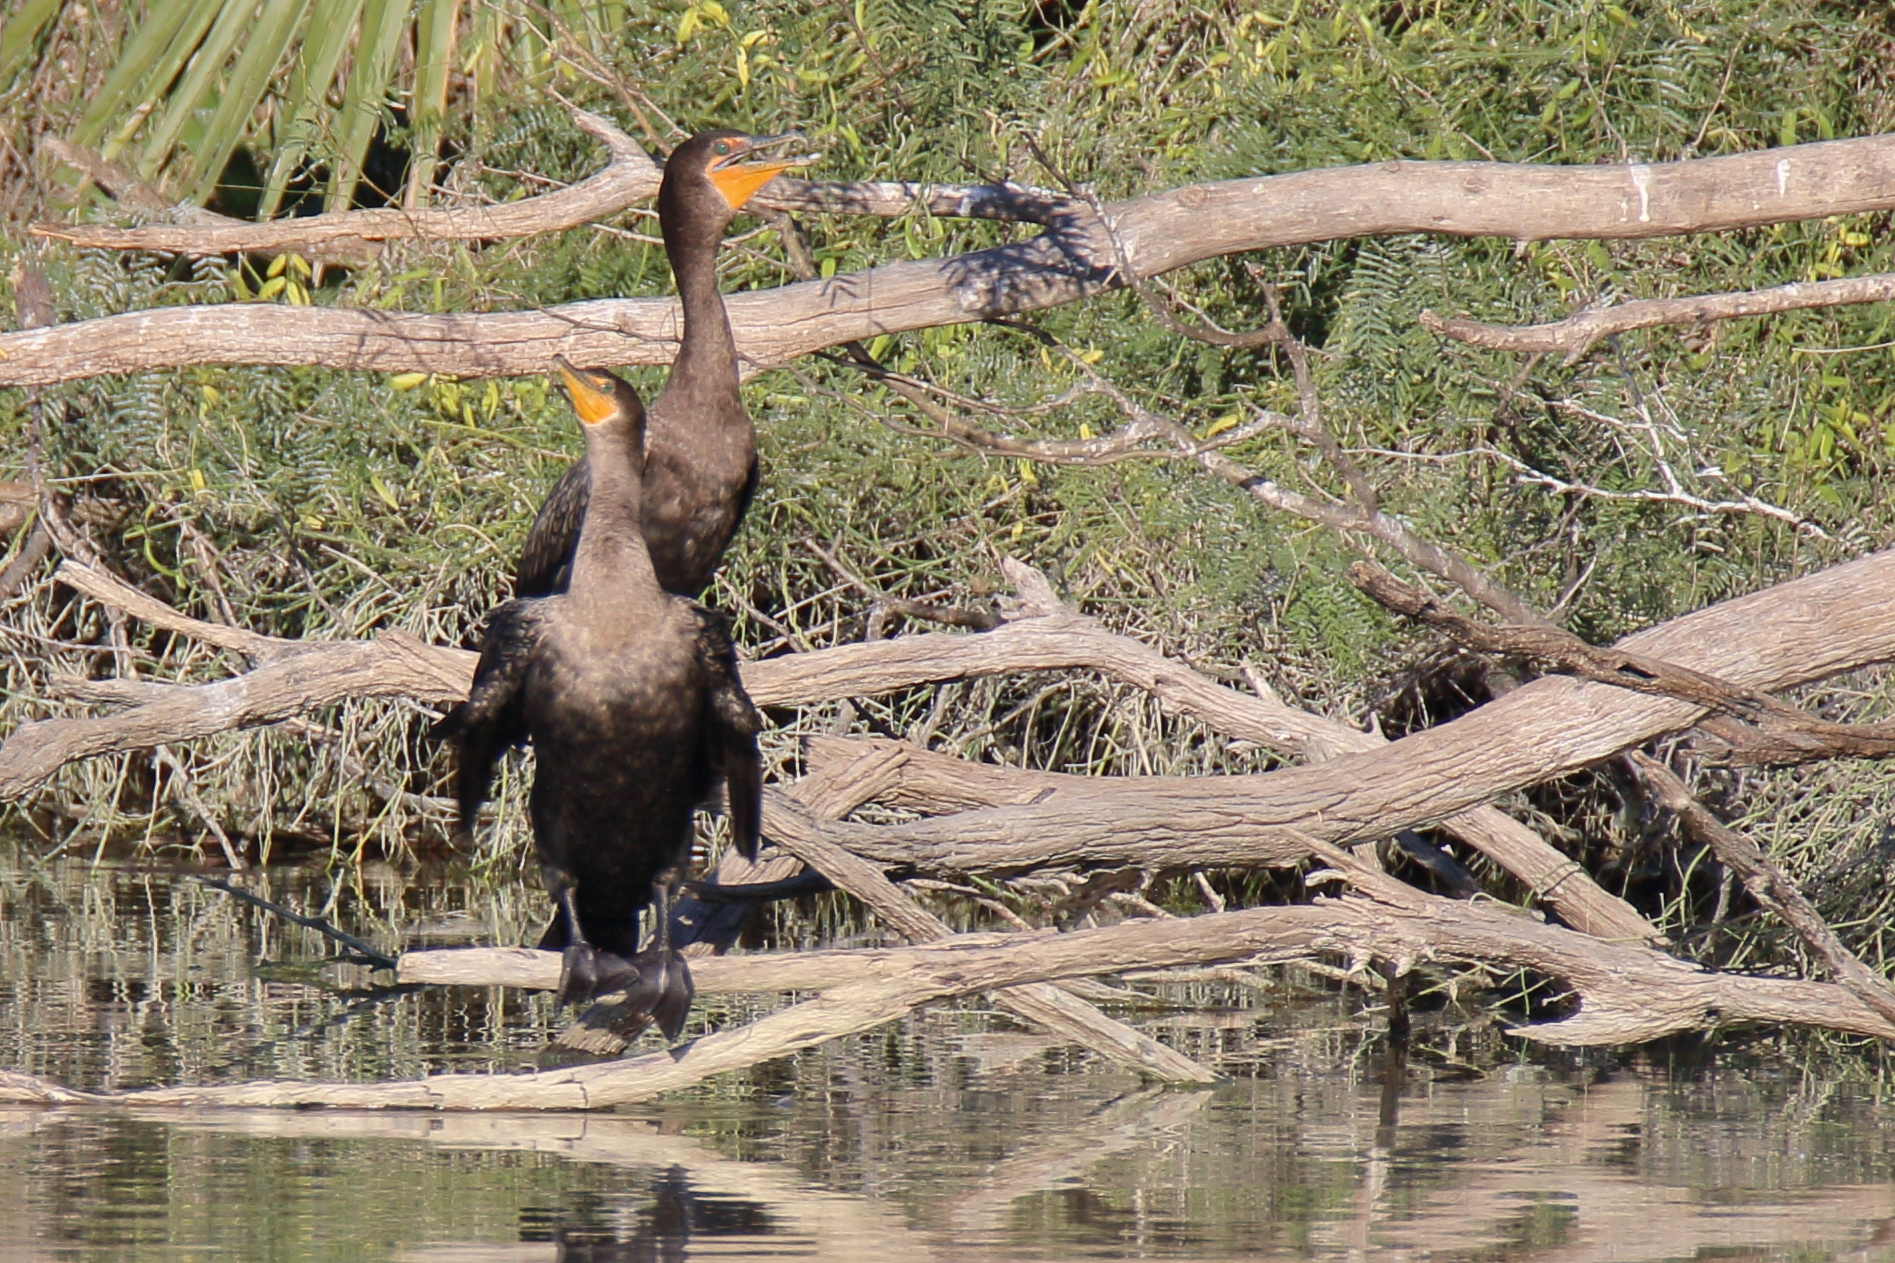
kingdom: Animalia
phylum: Chordata
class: Aves
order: Suliformes
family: Phalacrocoracidae
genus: Phalacrocorax
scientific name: Phalacrocorax auritus
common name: Double-crested cormorant
